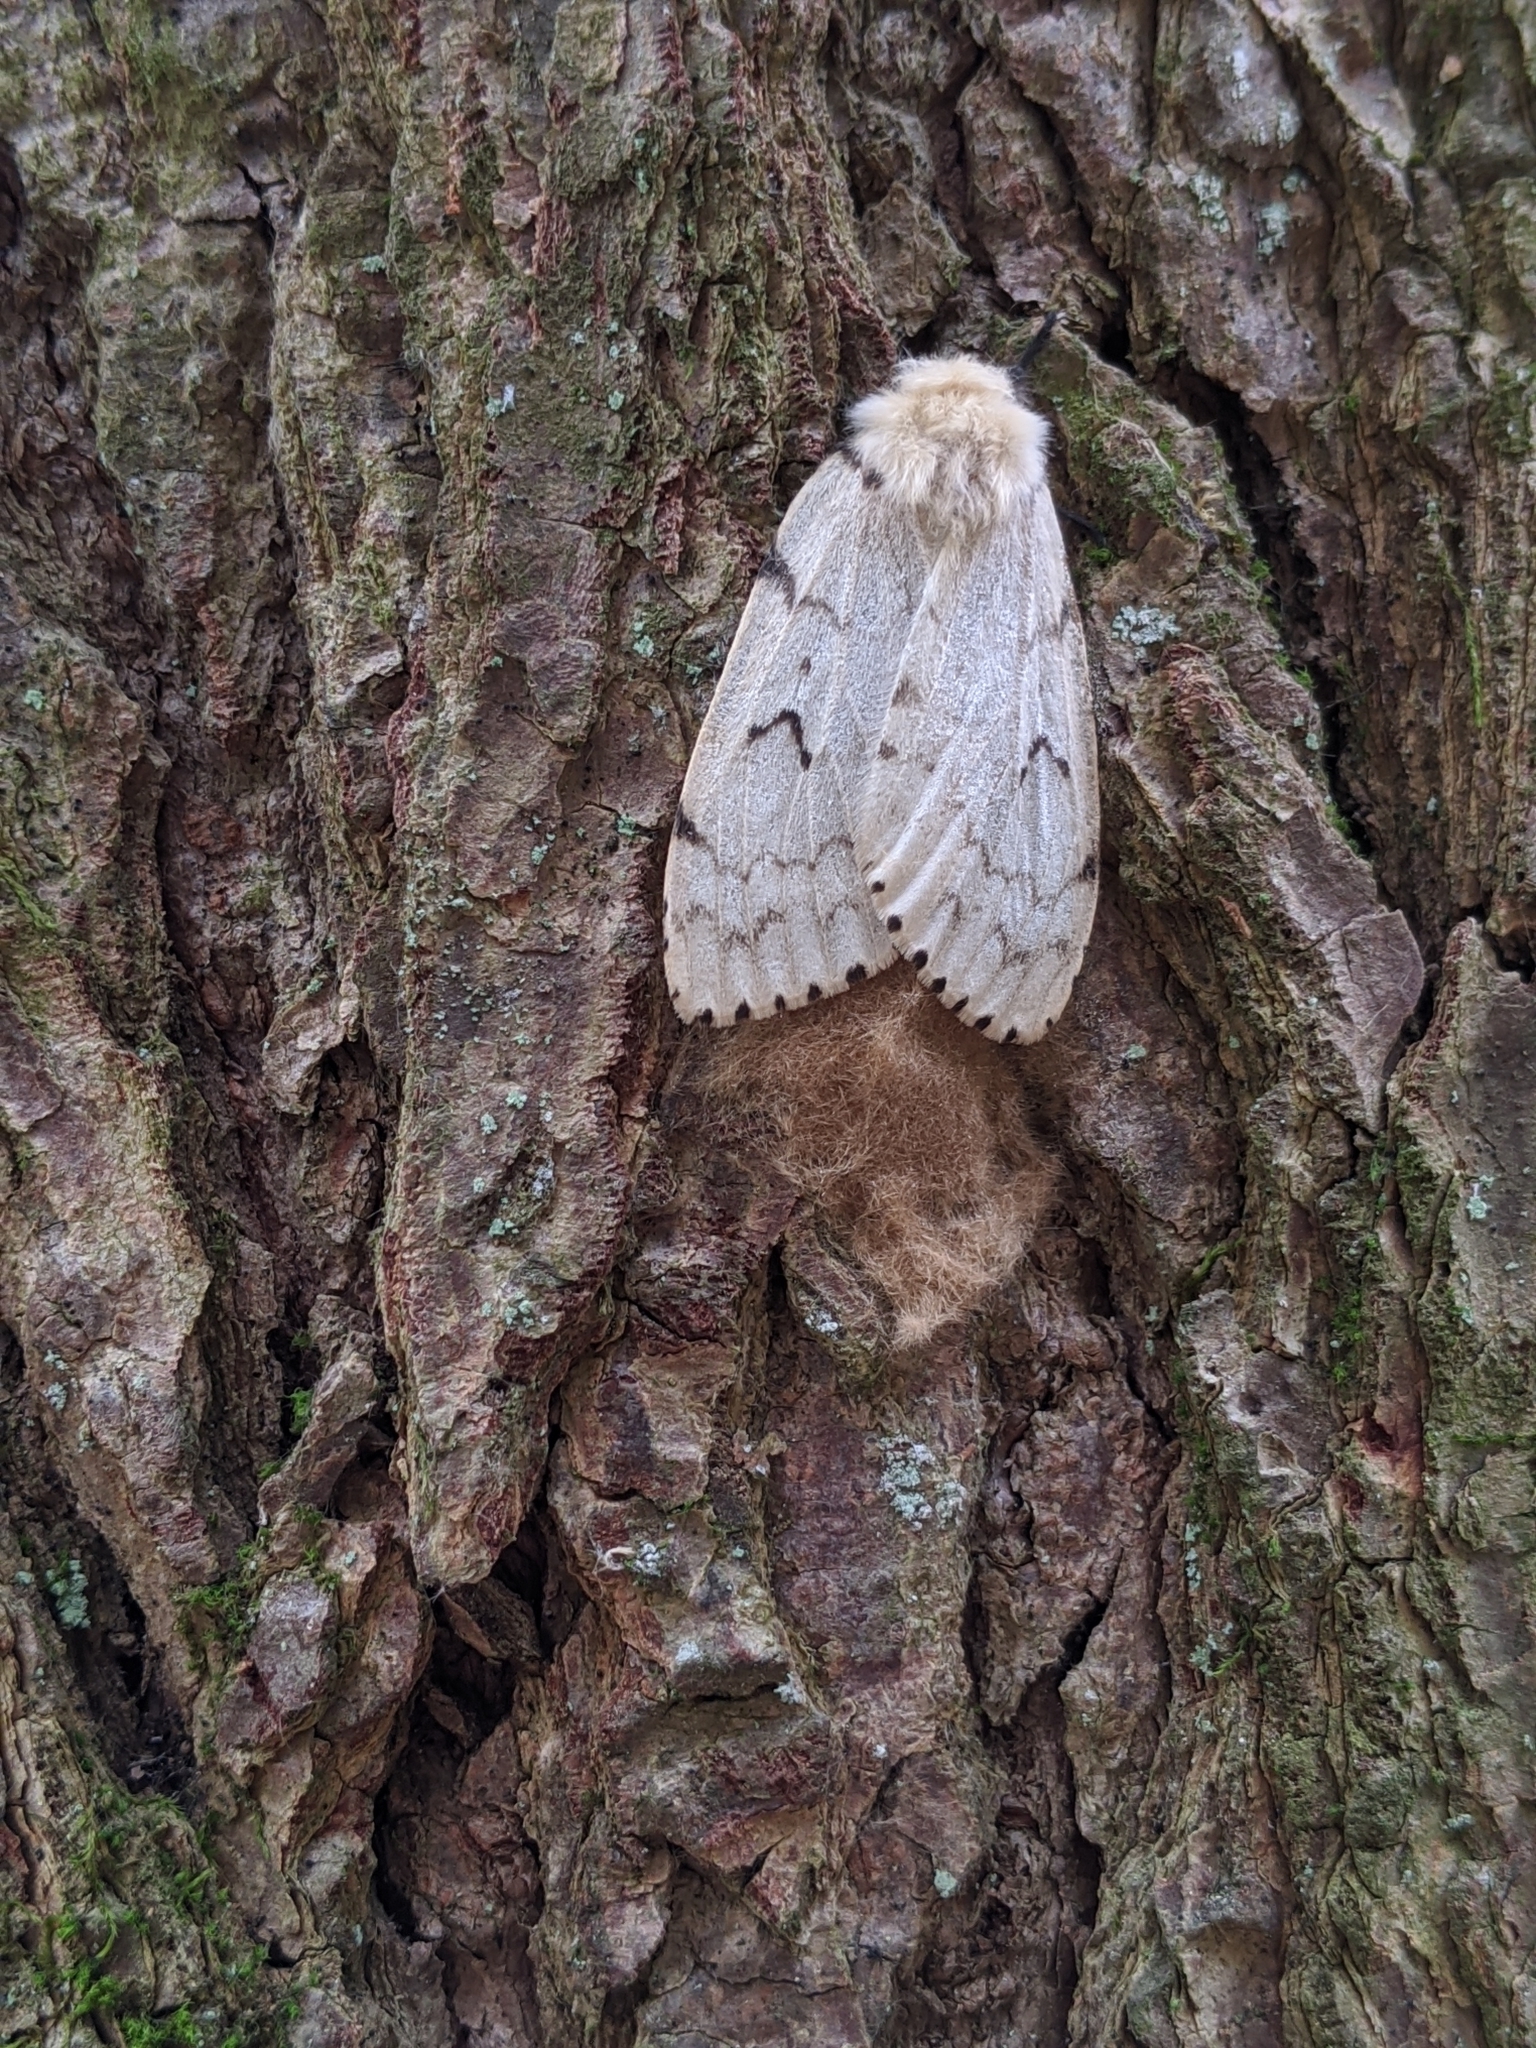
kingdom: Animalia
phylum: Arthropoda
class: Insecta
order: Lepidoptera
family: Erebidae
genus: Lymantria
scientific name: Lymantria dispar
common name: Gypsy moth
